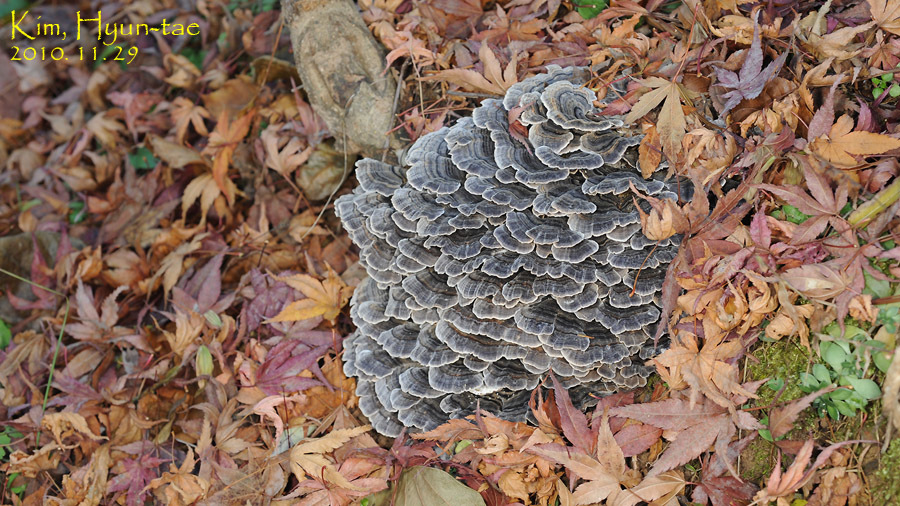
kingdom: Fungi
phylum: Basidiomycota
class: Agaricomycetes
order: Polyporales
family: Polyporaceae
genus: Trametes
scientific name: Trametes versicolor
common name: Turkeytail
